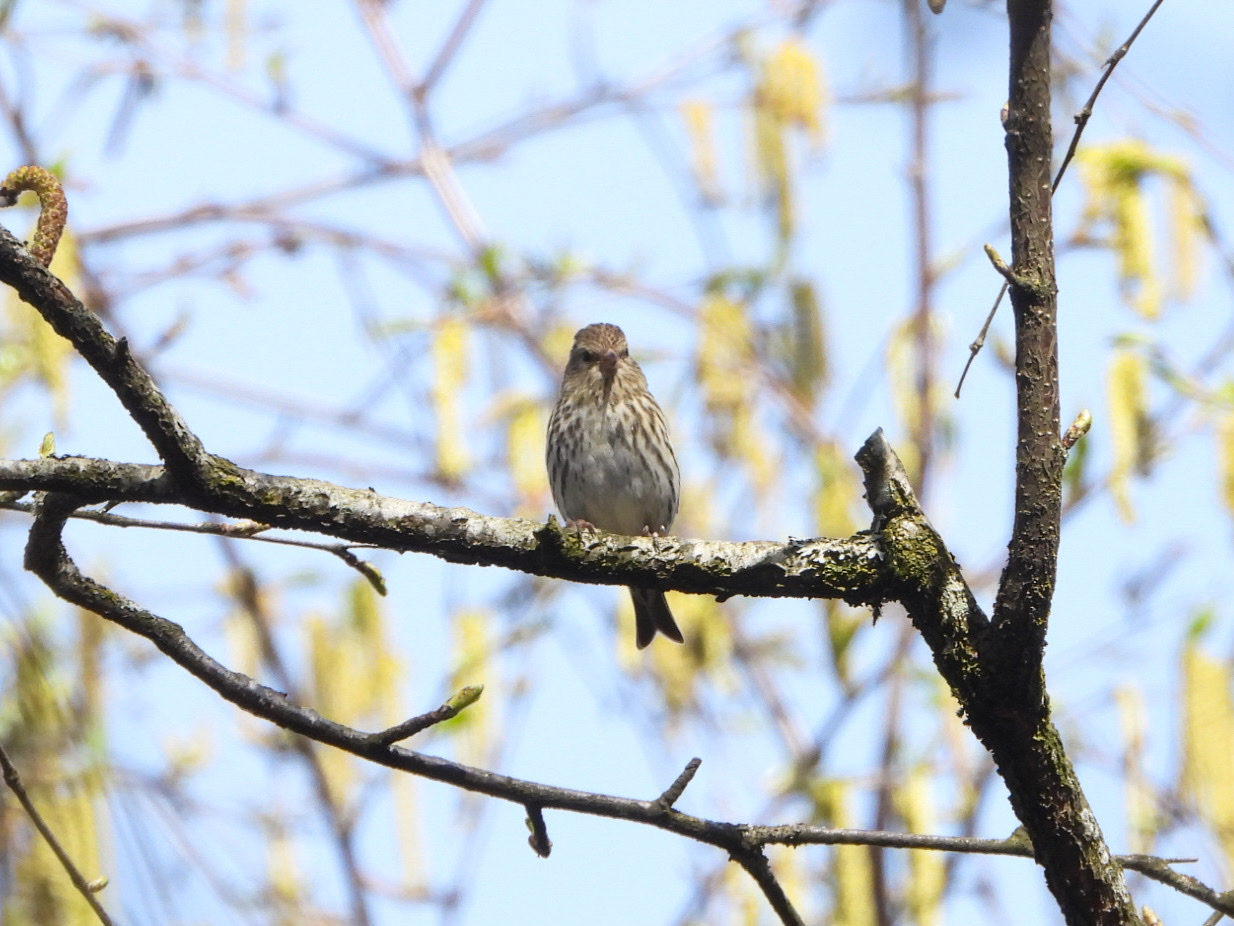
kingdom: Animalia
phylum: Chordata
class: Aves
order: Passeriformes
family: Fringillidae
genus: Spinus
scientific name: Spinus pinus
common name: Pine siskin
